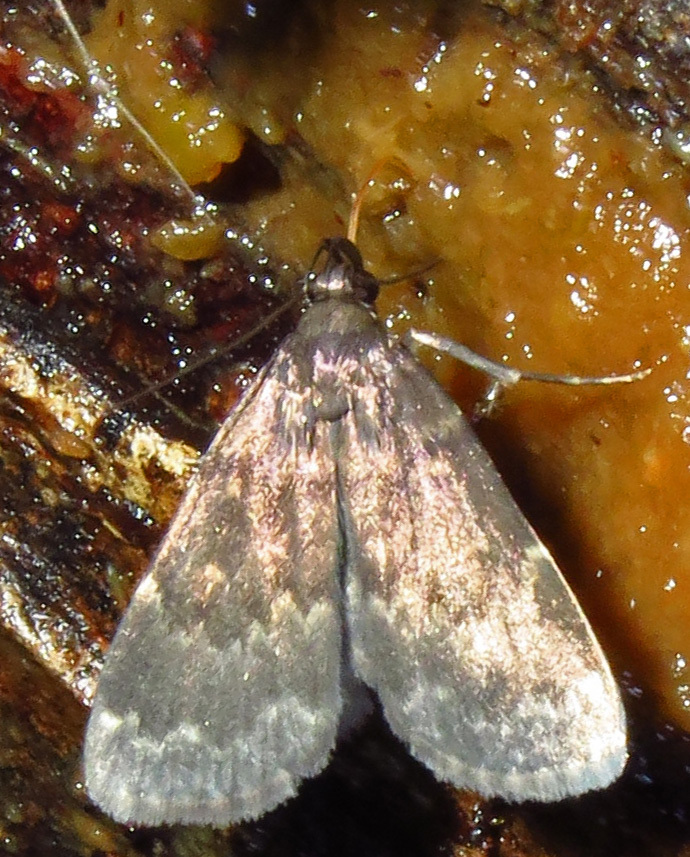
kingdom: Animalia
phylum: Arthropoda
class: Insecta
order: Lepidoptera
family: Erebidae
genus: Idia
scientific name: Idia lubricalis
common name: Twin-striped tabby
